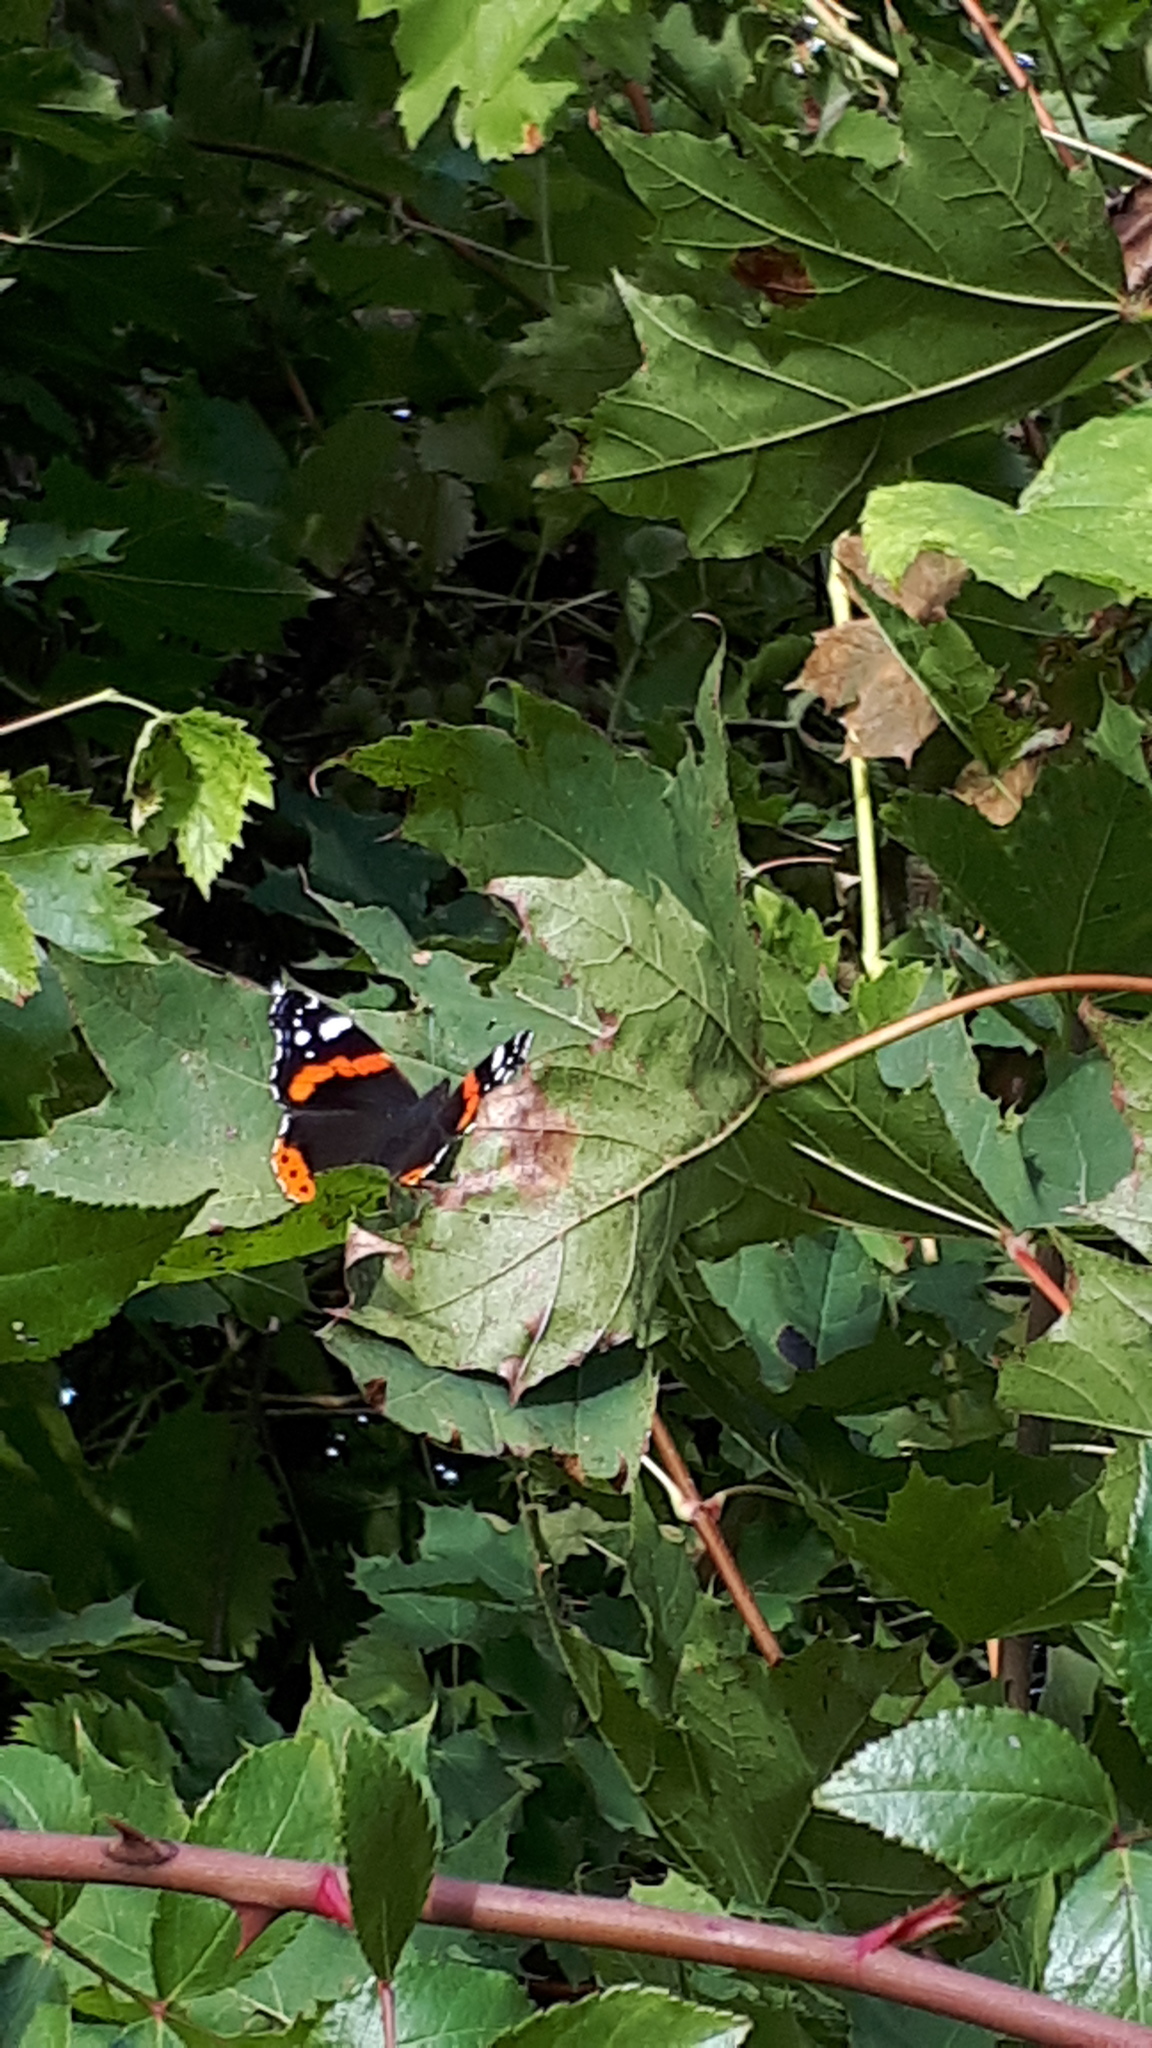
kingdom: Animalia
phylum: Arthropoda
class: Insecta
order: Lepidoptera
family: Nymphalidae
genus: Vanessa
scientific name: Vanessa atalanta
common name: Red admiral
